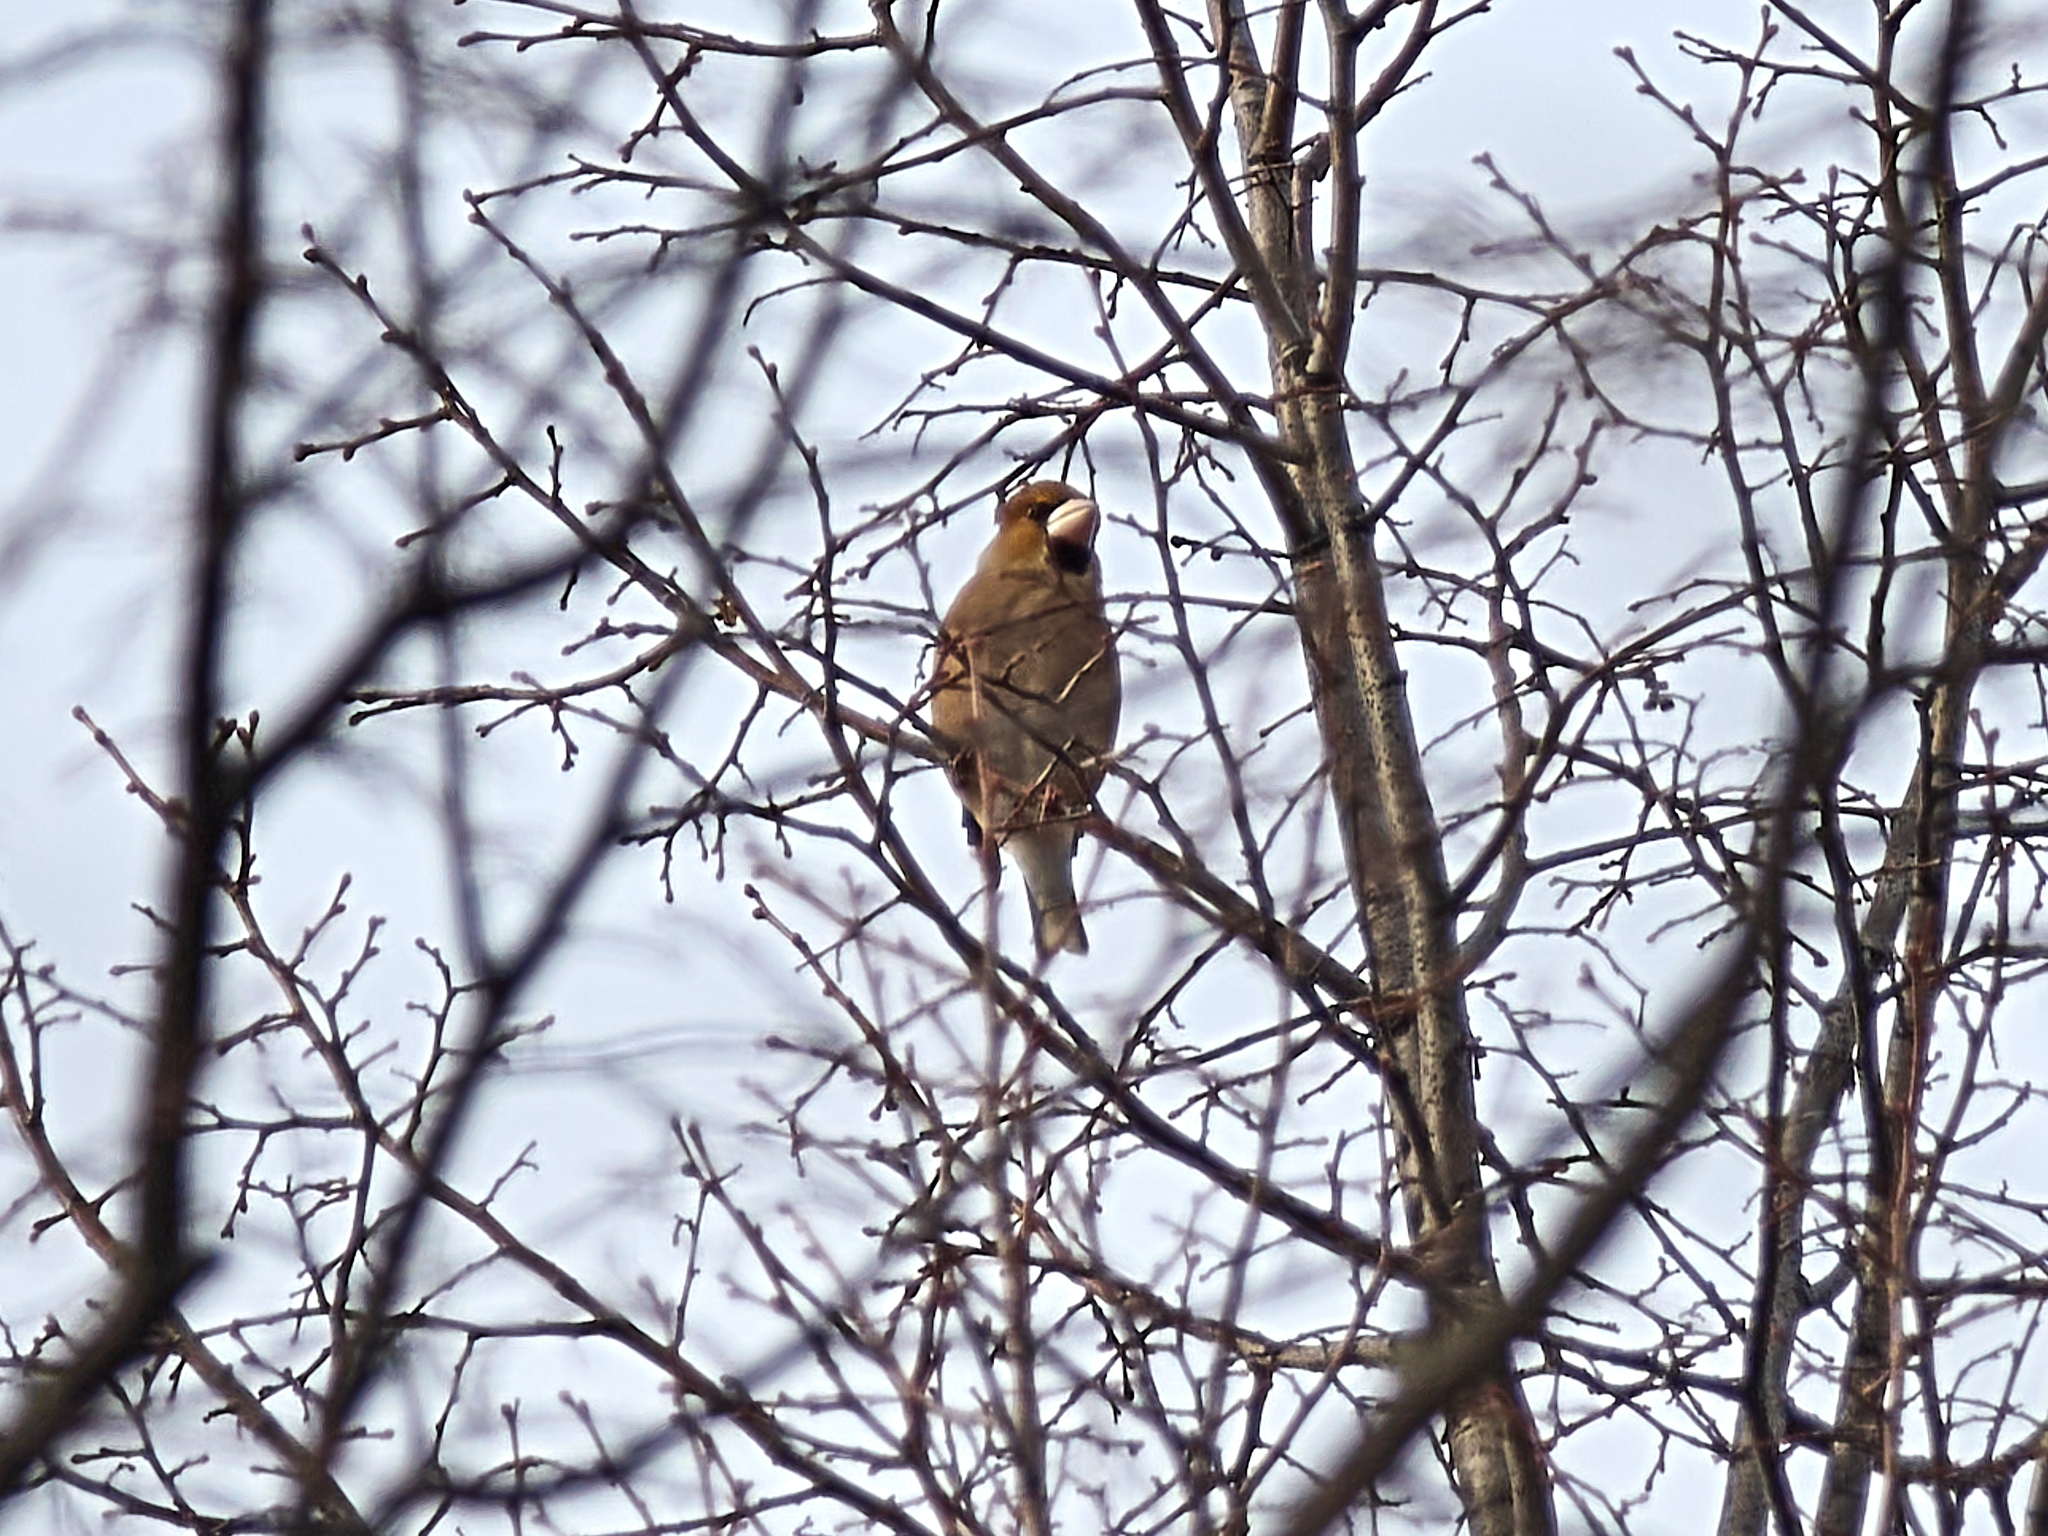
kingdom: Animalia
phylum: Chordata
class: Aves
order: Passeriformes
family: Fringillidae
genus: Coccothraustes
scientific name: Coccothraustes coccothraustes
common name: Hawfinch
